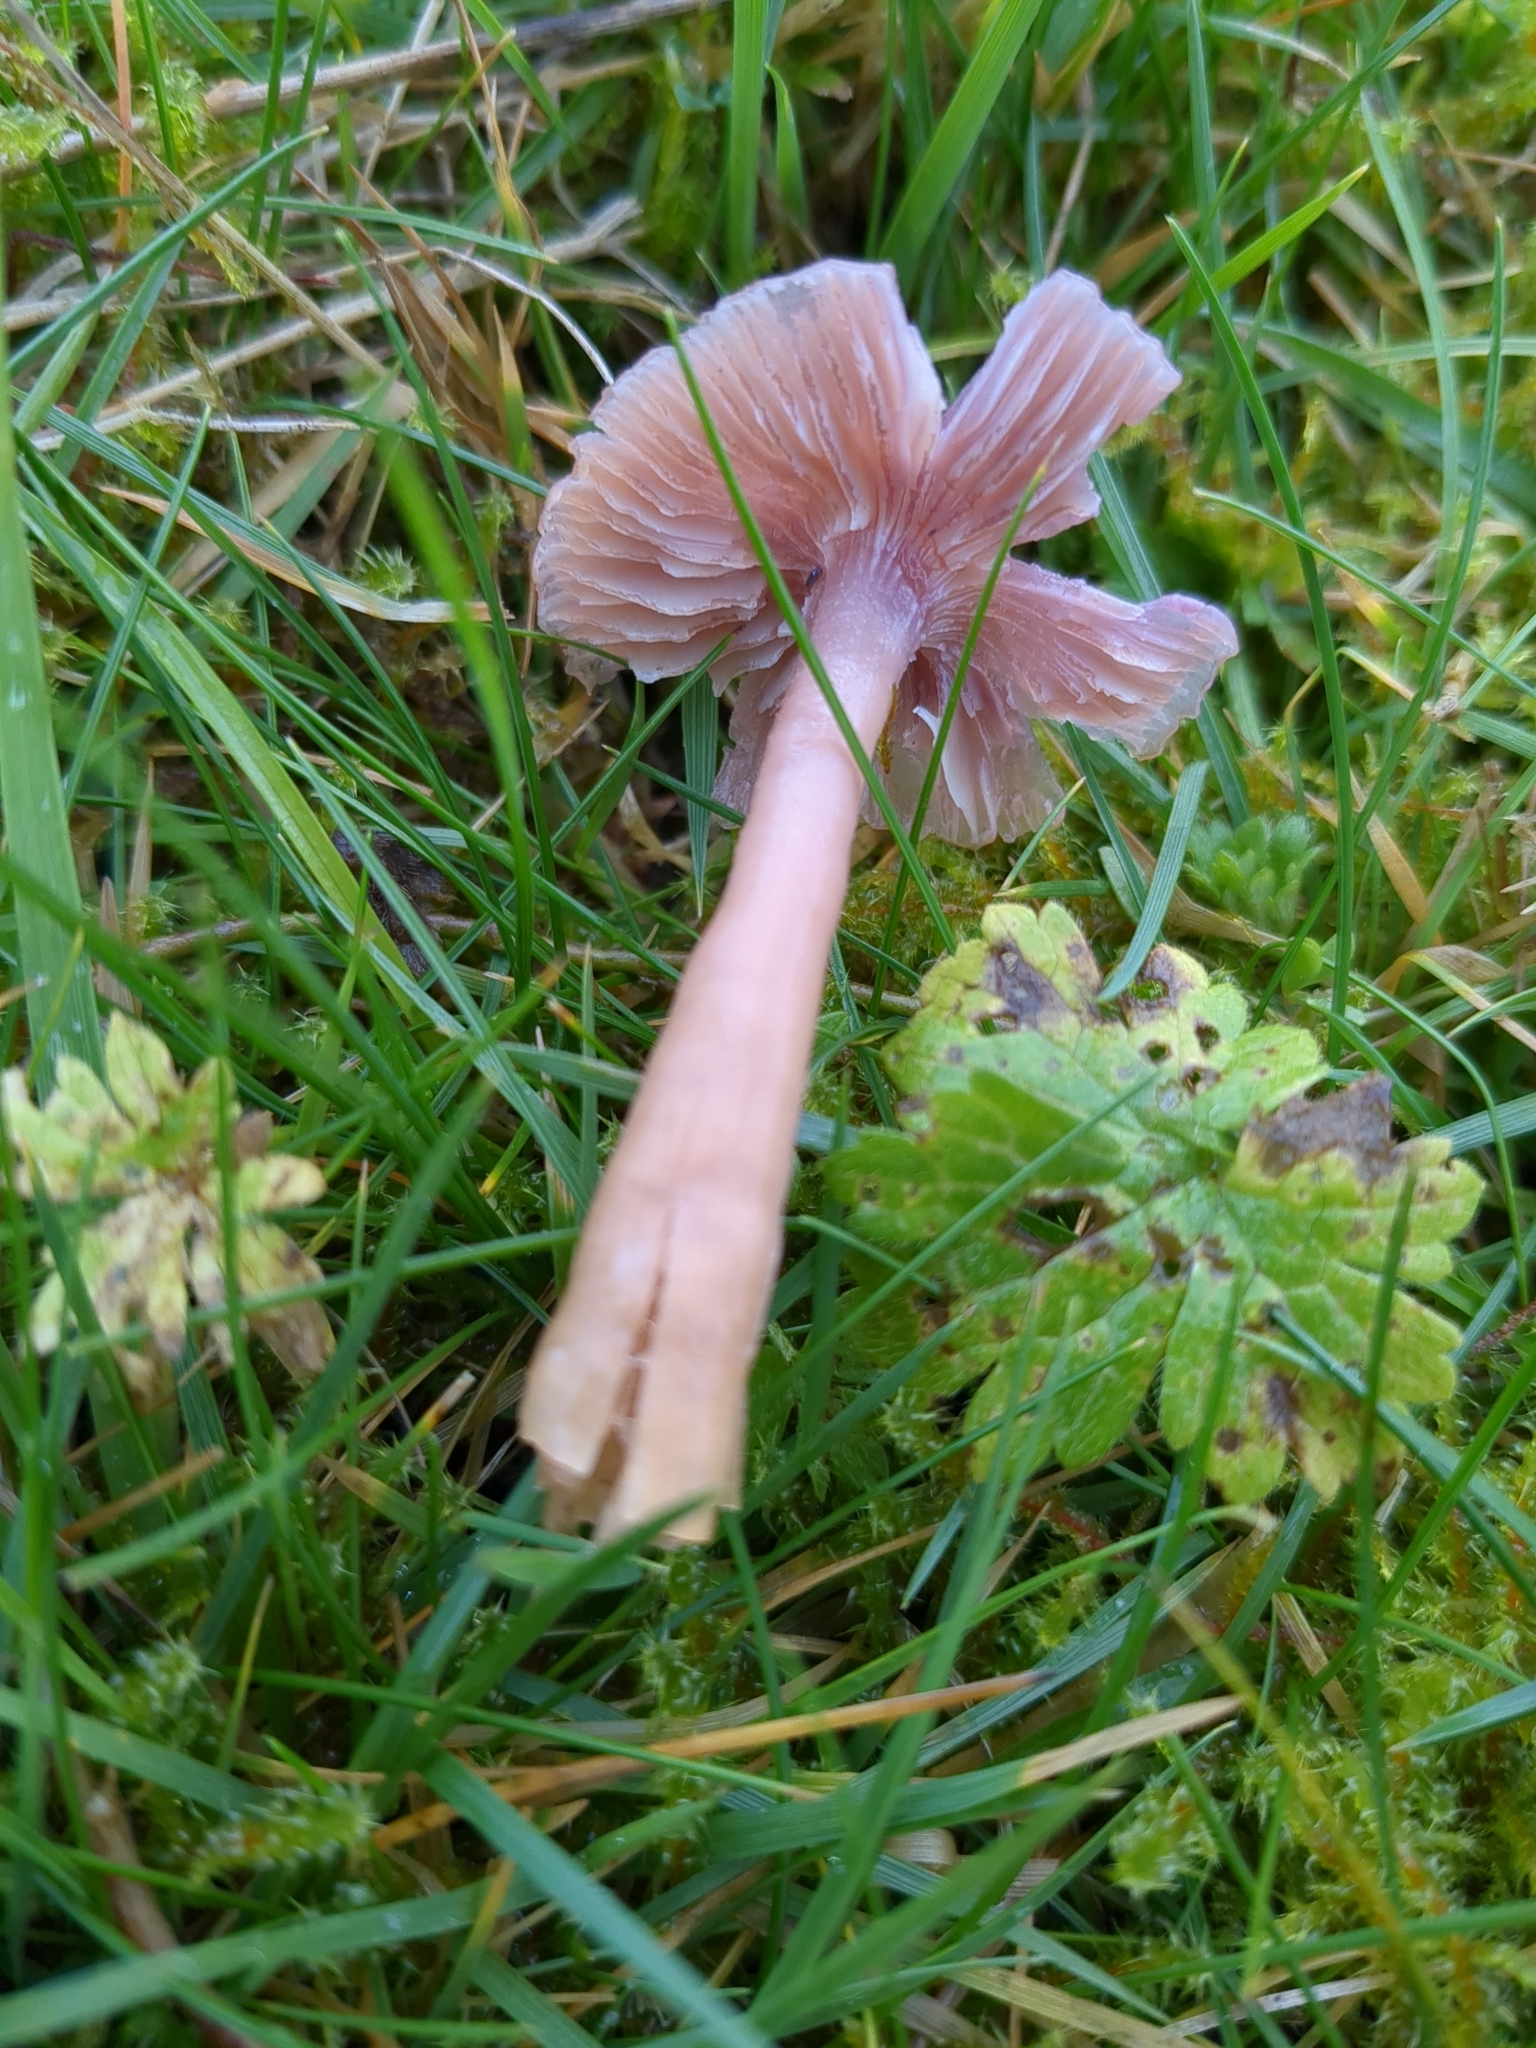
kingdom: Fungi
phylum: Basidiomycota
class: Agaricomycetes
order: Agaricales
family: Hygrophoraceae
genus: Gliophorus
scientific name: Gliophorus reginae
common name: Jubilee waxcap
